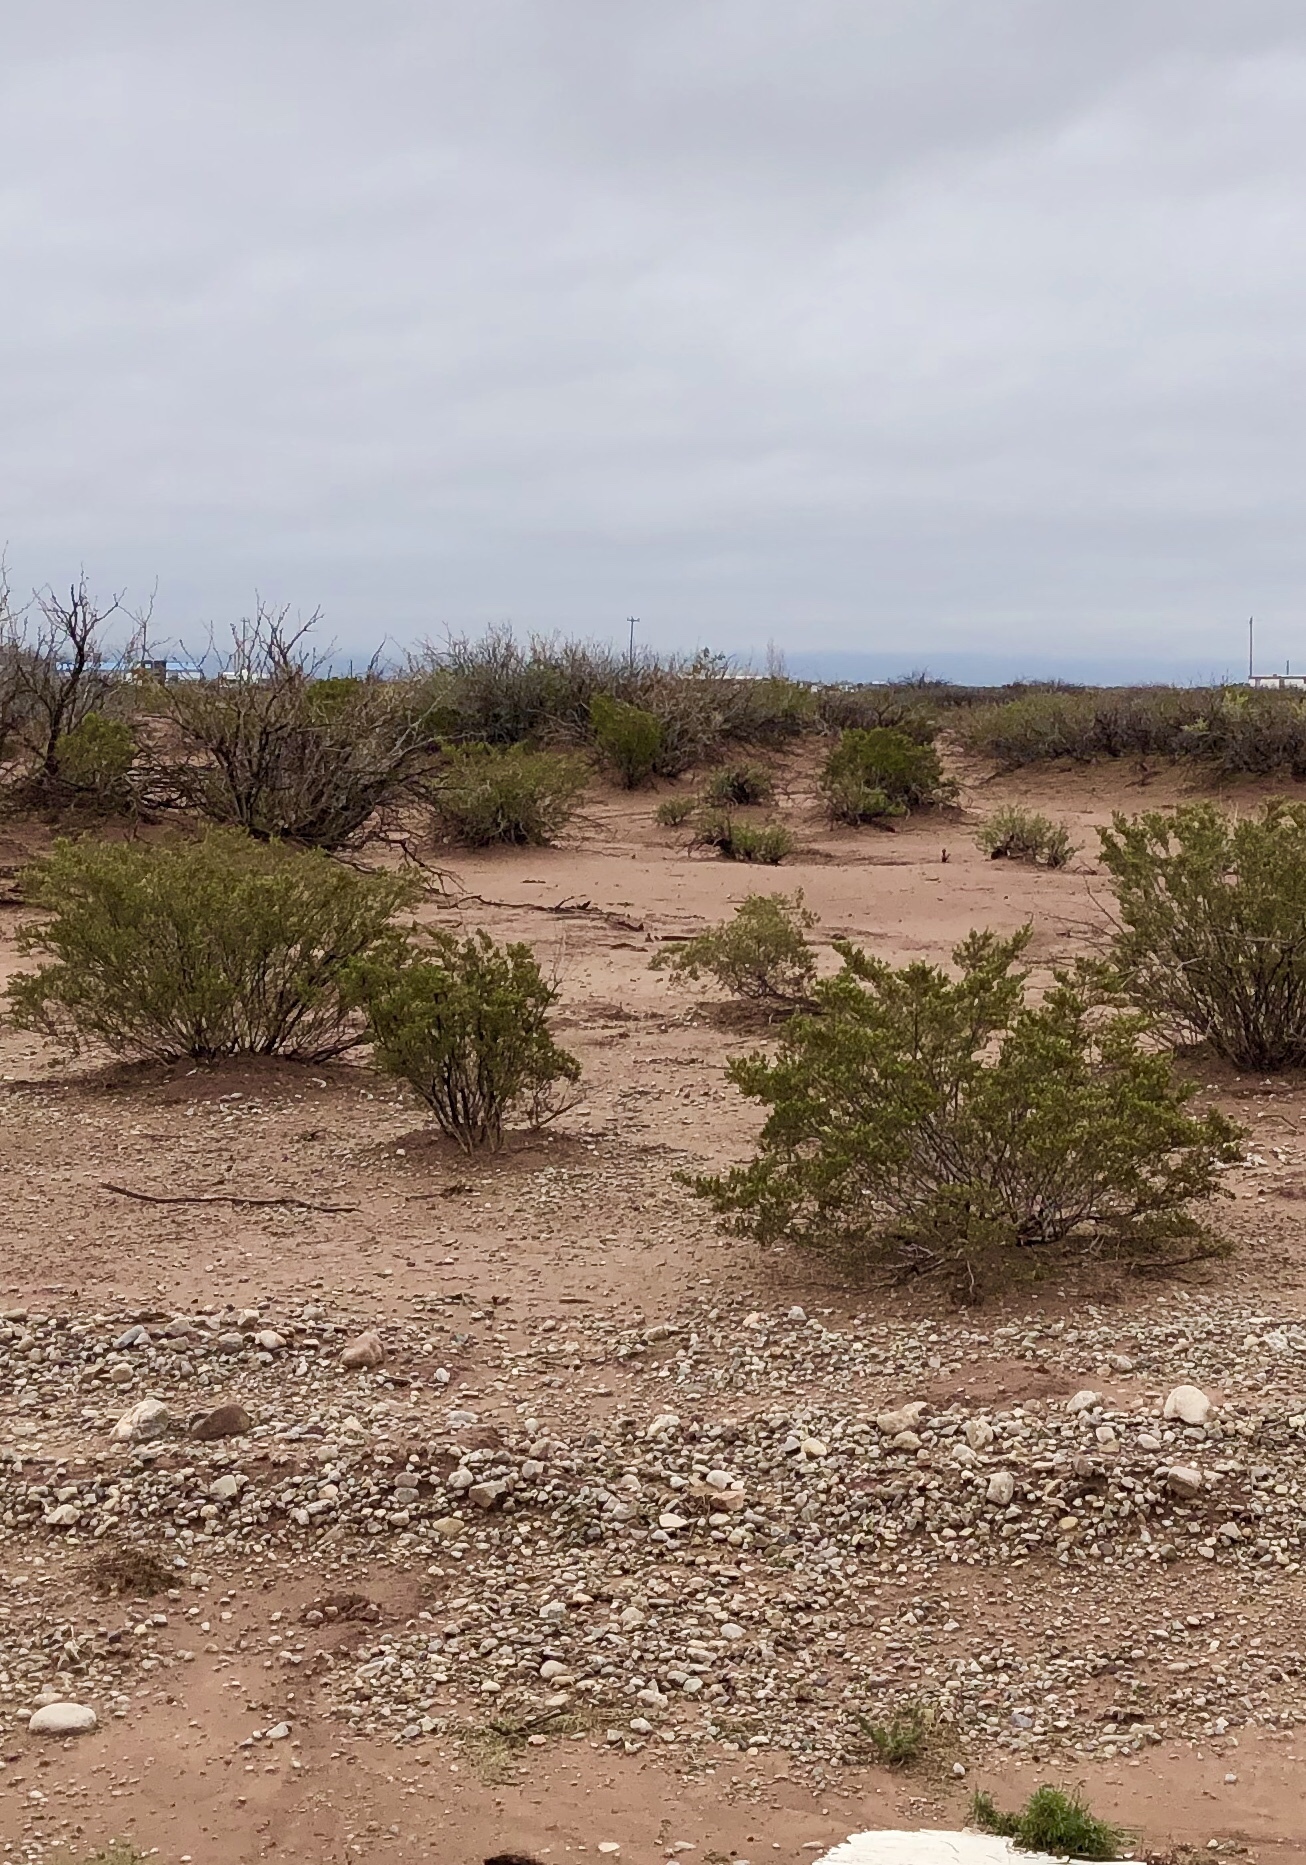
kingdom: Plantae
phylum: Tracheophyta
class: Magnoliopsida
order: Zygophyllales
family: Zygophyllaceae
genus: Larrea
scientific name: Larrea tridentata
